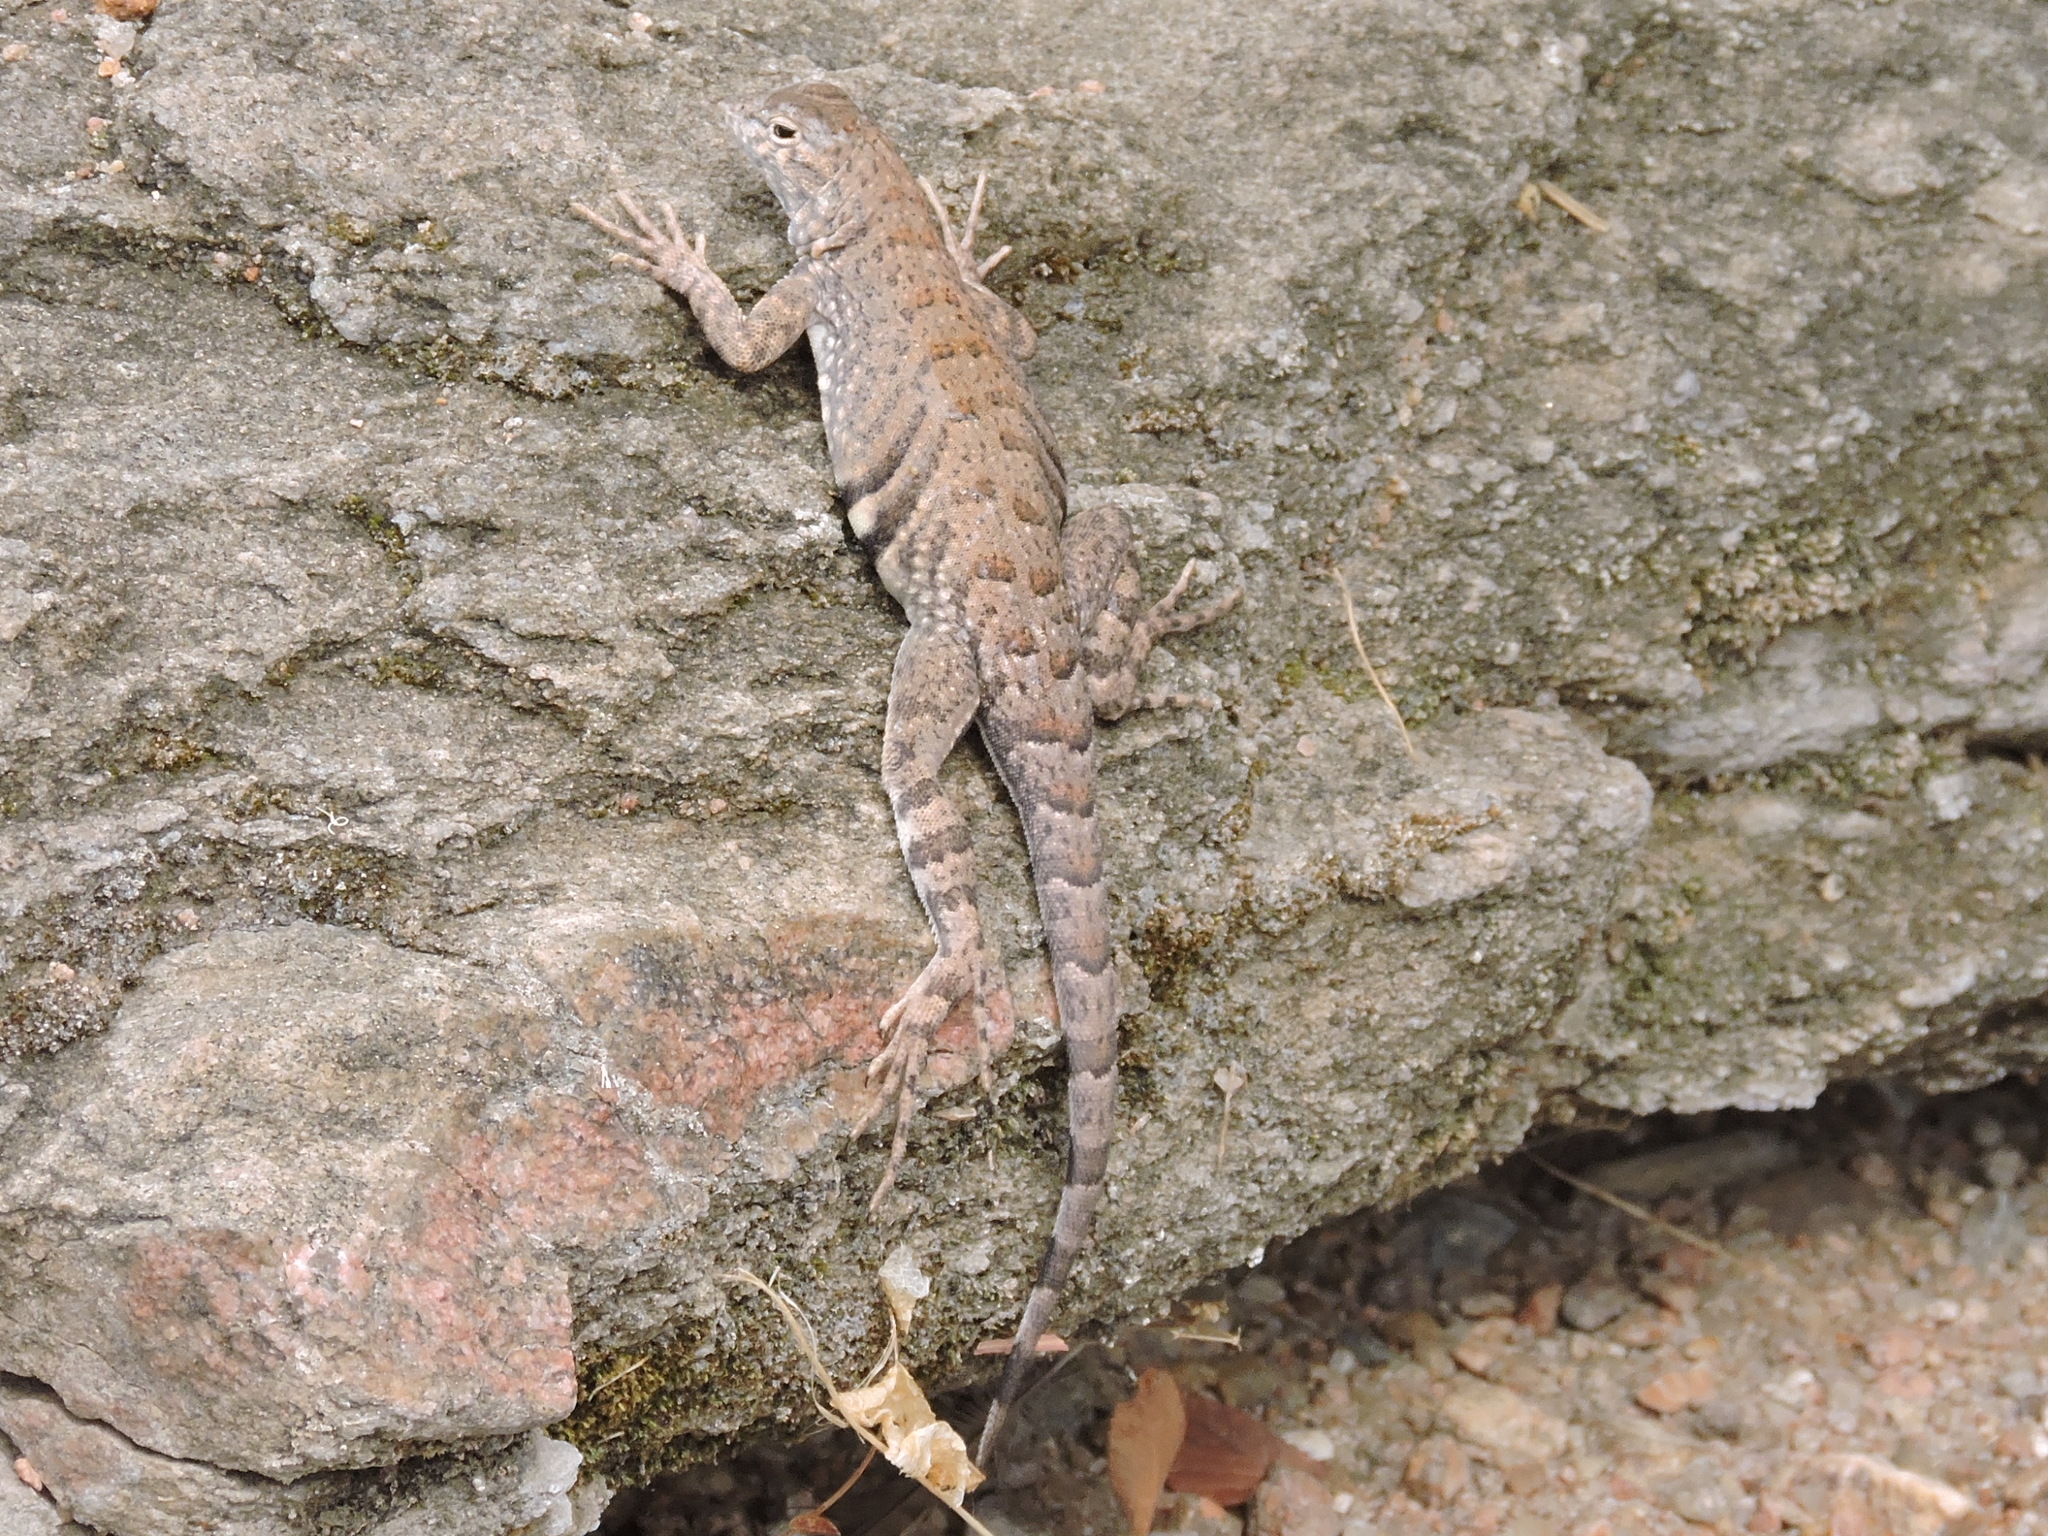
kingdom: Animalia
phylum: Chordata
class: Squamata
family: Phrynosomatidae
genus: Cophosaurus
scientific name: Cophosaurus texanus
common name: Greater earless lizard
